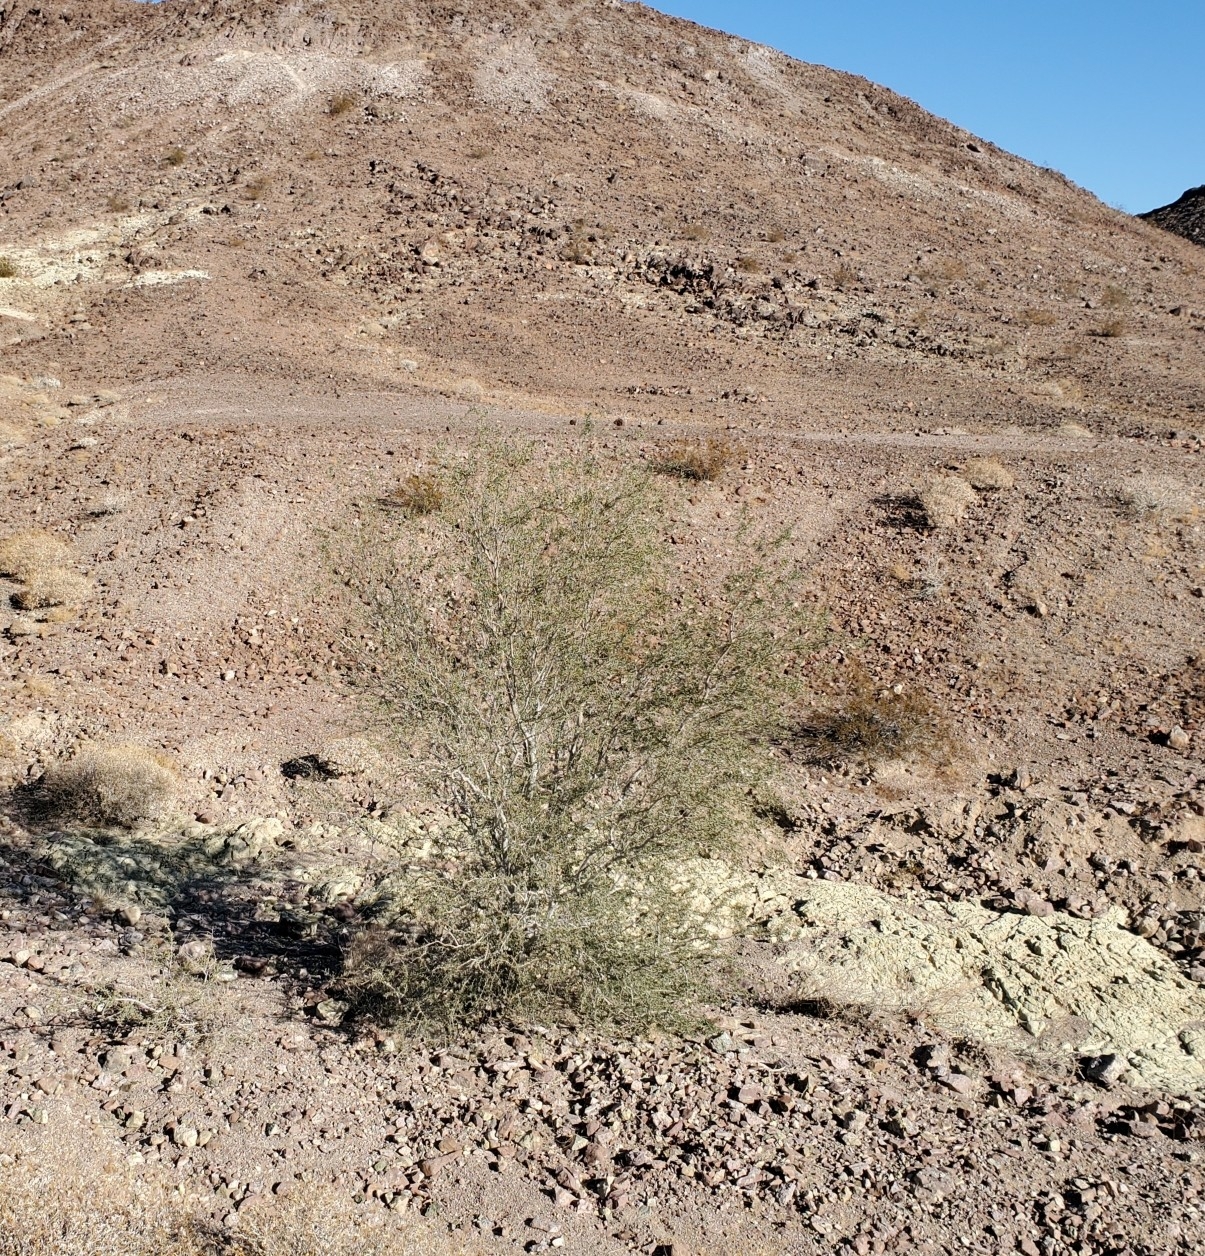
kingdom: Plantae
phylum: Tracheophyta
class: Magnoliopsida
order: Fabales
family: Fabaceae
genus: Olneya
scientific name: Olneya tesota
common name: Desert ironwood
